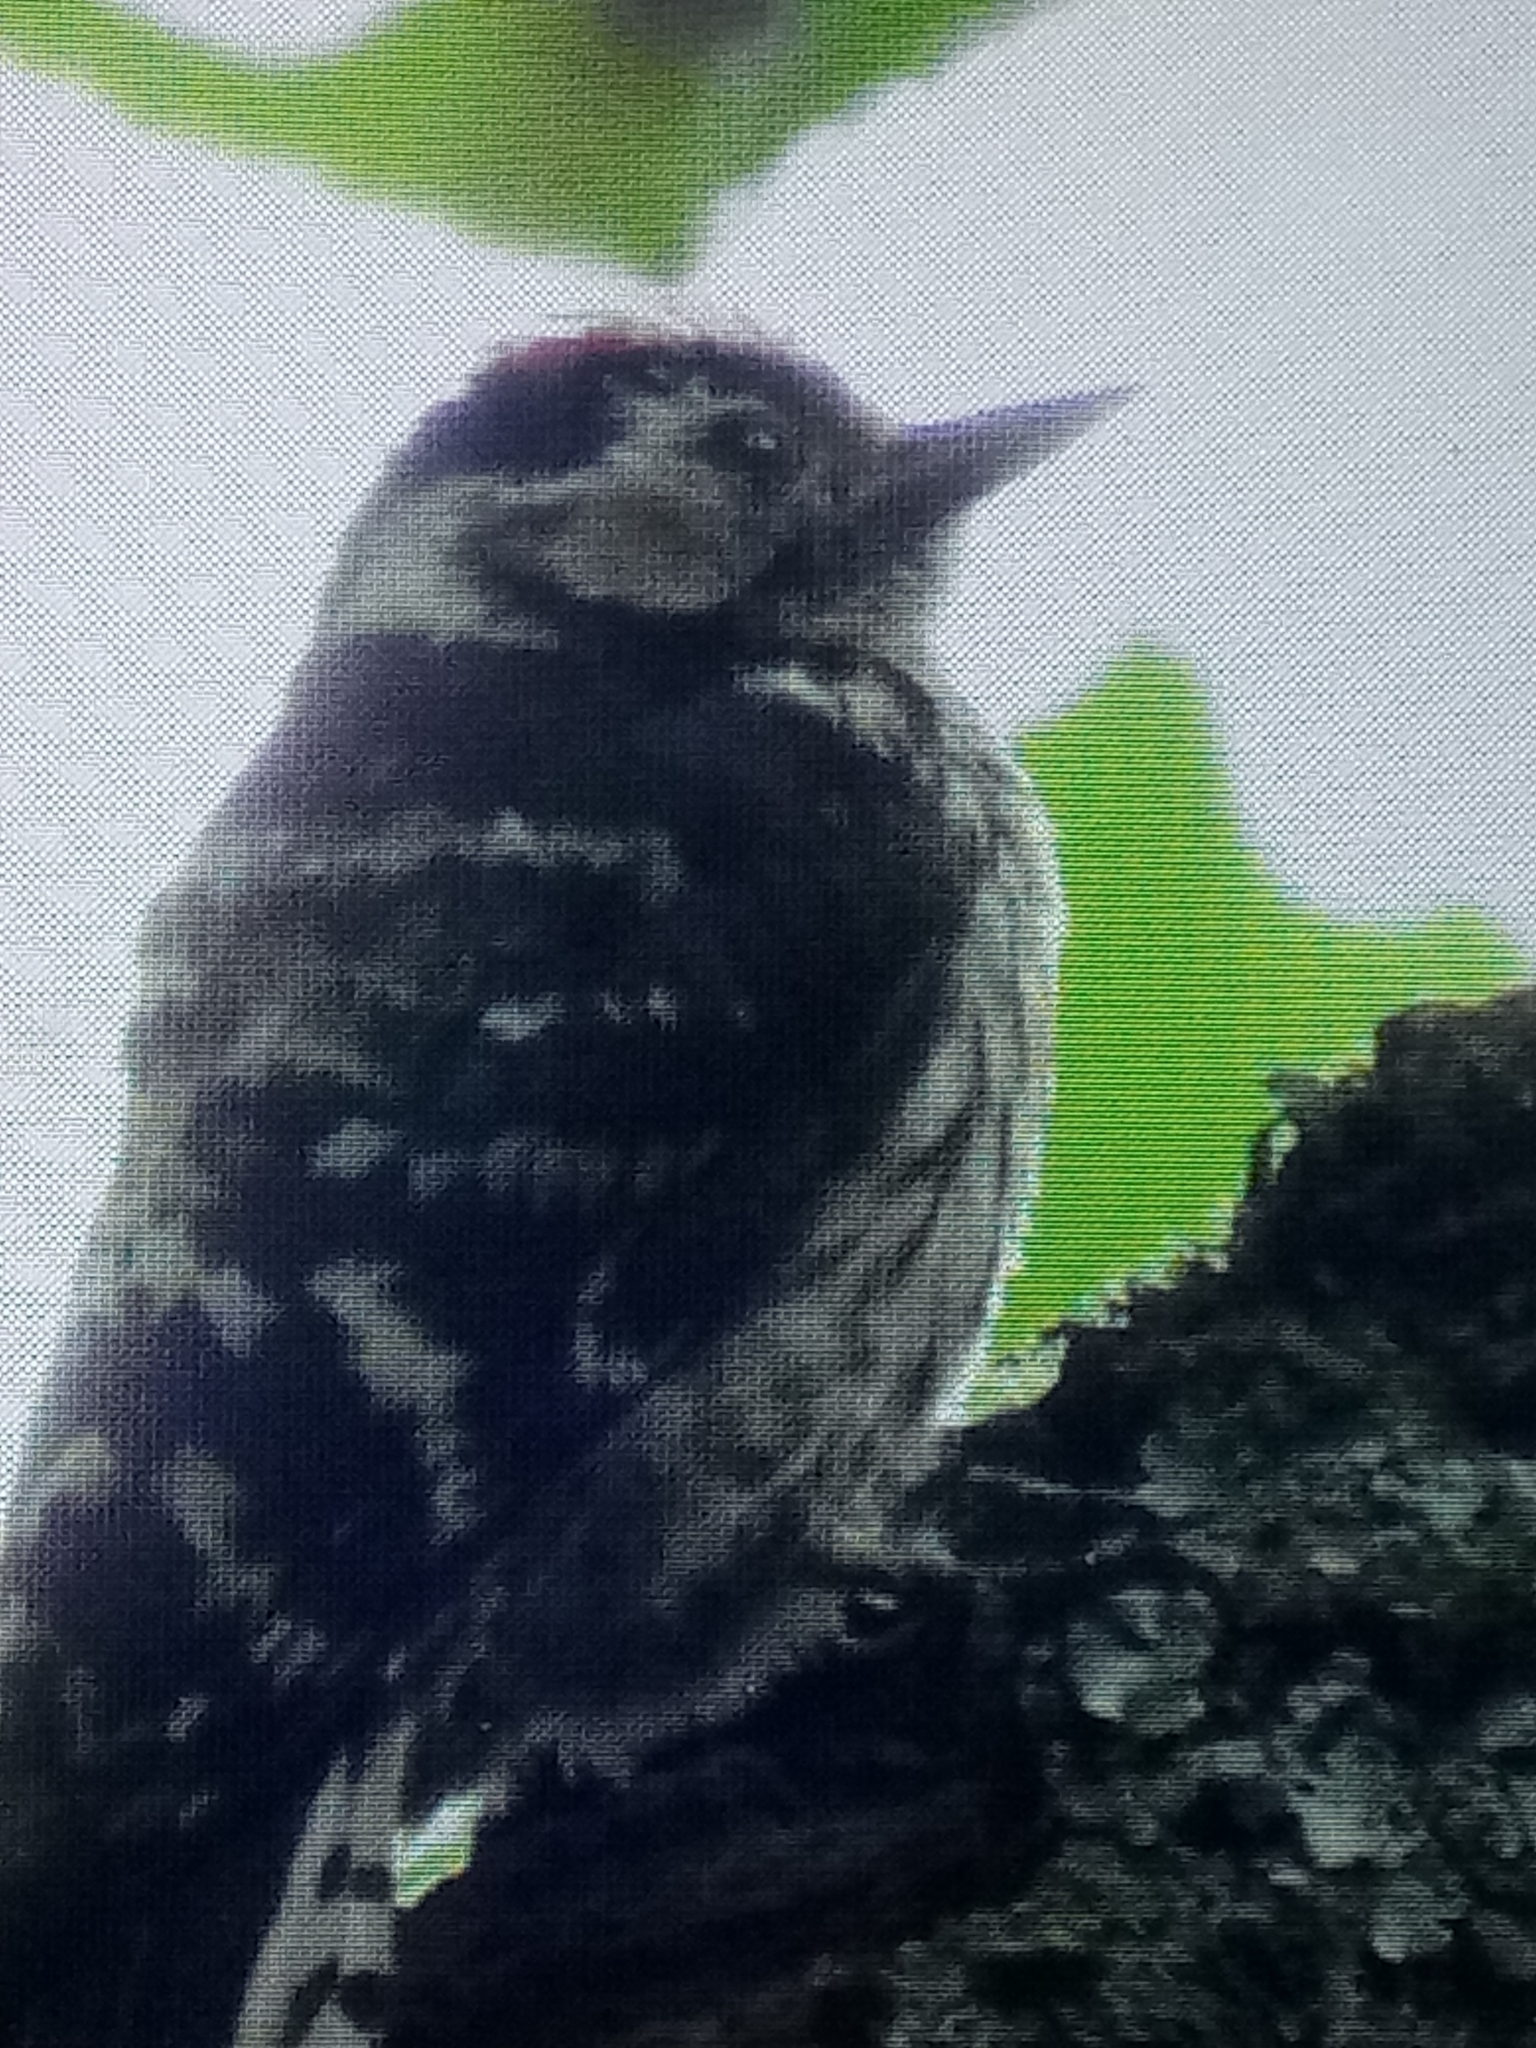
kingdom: Animalia
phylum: Chordata
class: Aves
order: Piciformes
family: Picidae
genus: Dryobates
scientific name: Dryobates minor
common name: Lesser spotted woodpecker
